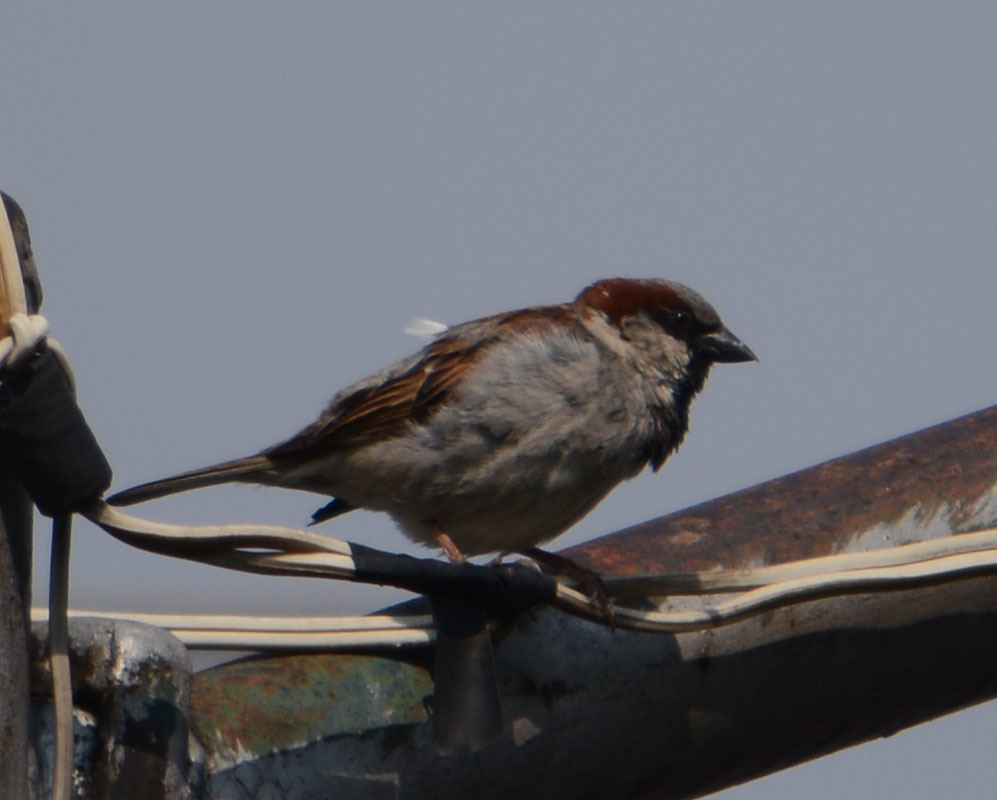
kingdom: Animalia
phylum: Chordata
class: Aves
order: Passeriformes
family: Passeridae
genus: Passer
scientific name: Passer domesticus
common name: House sparrow
